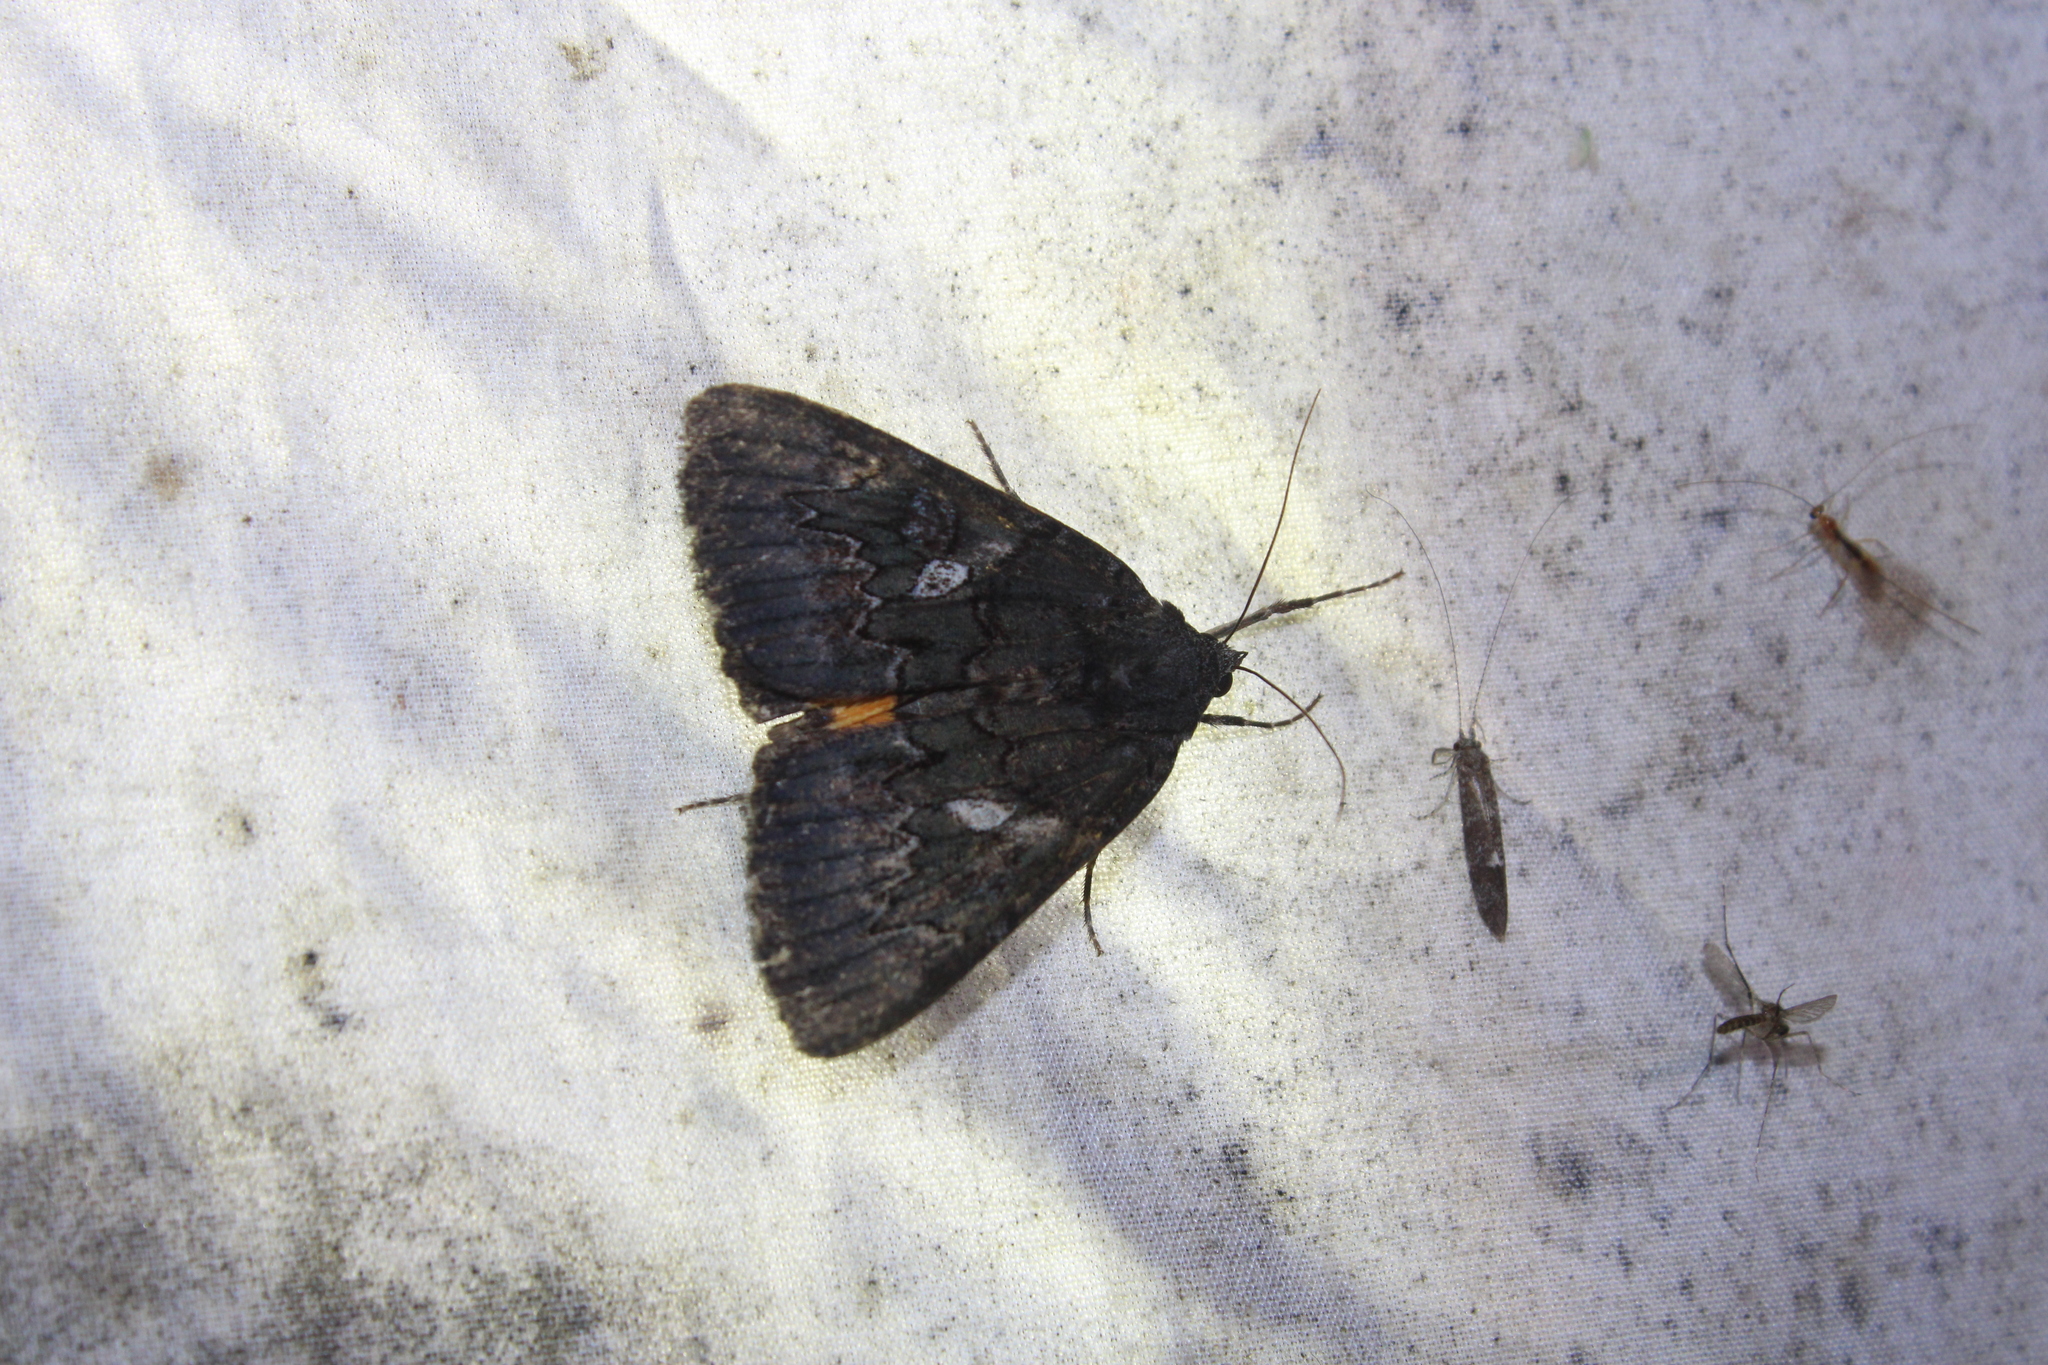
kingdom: Animalia
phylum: Arthropoda
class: Insecta
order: Lepidoptera
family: Erebidae
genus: Catocala
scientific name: Catocala antinympha
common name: Sweetfern underwing
